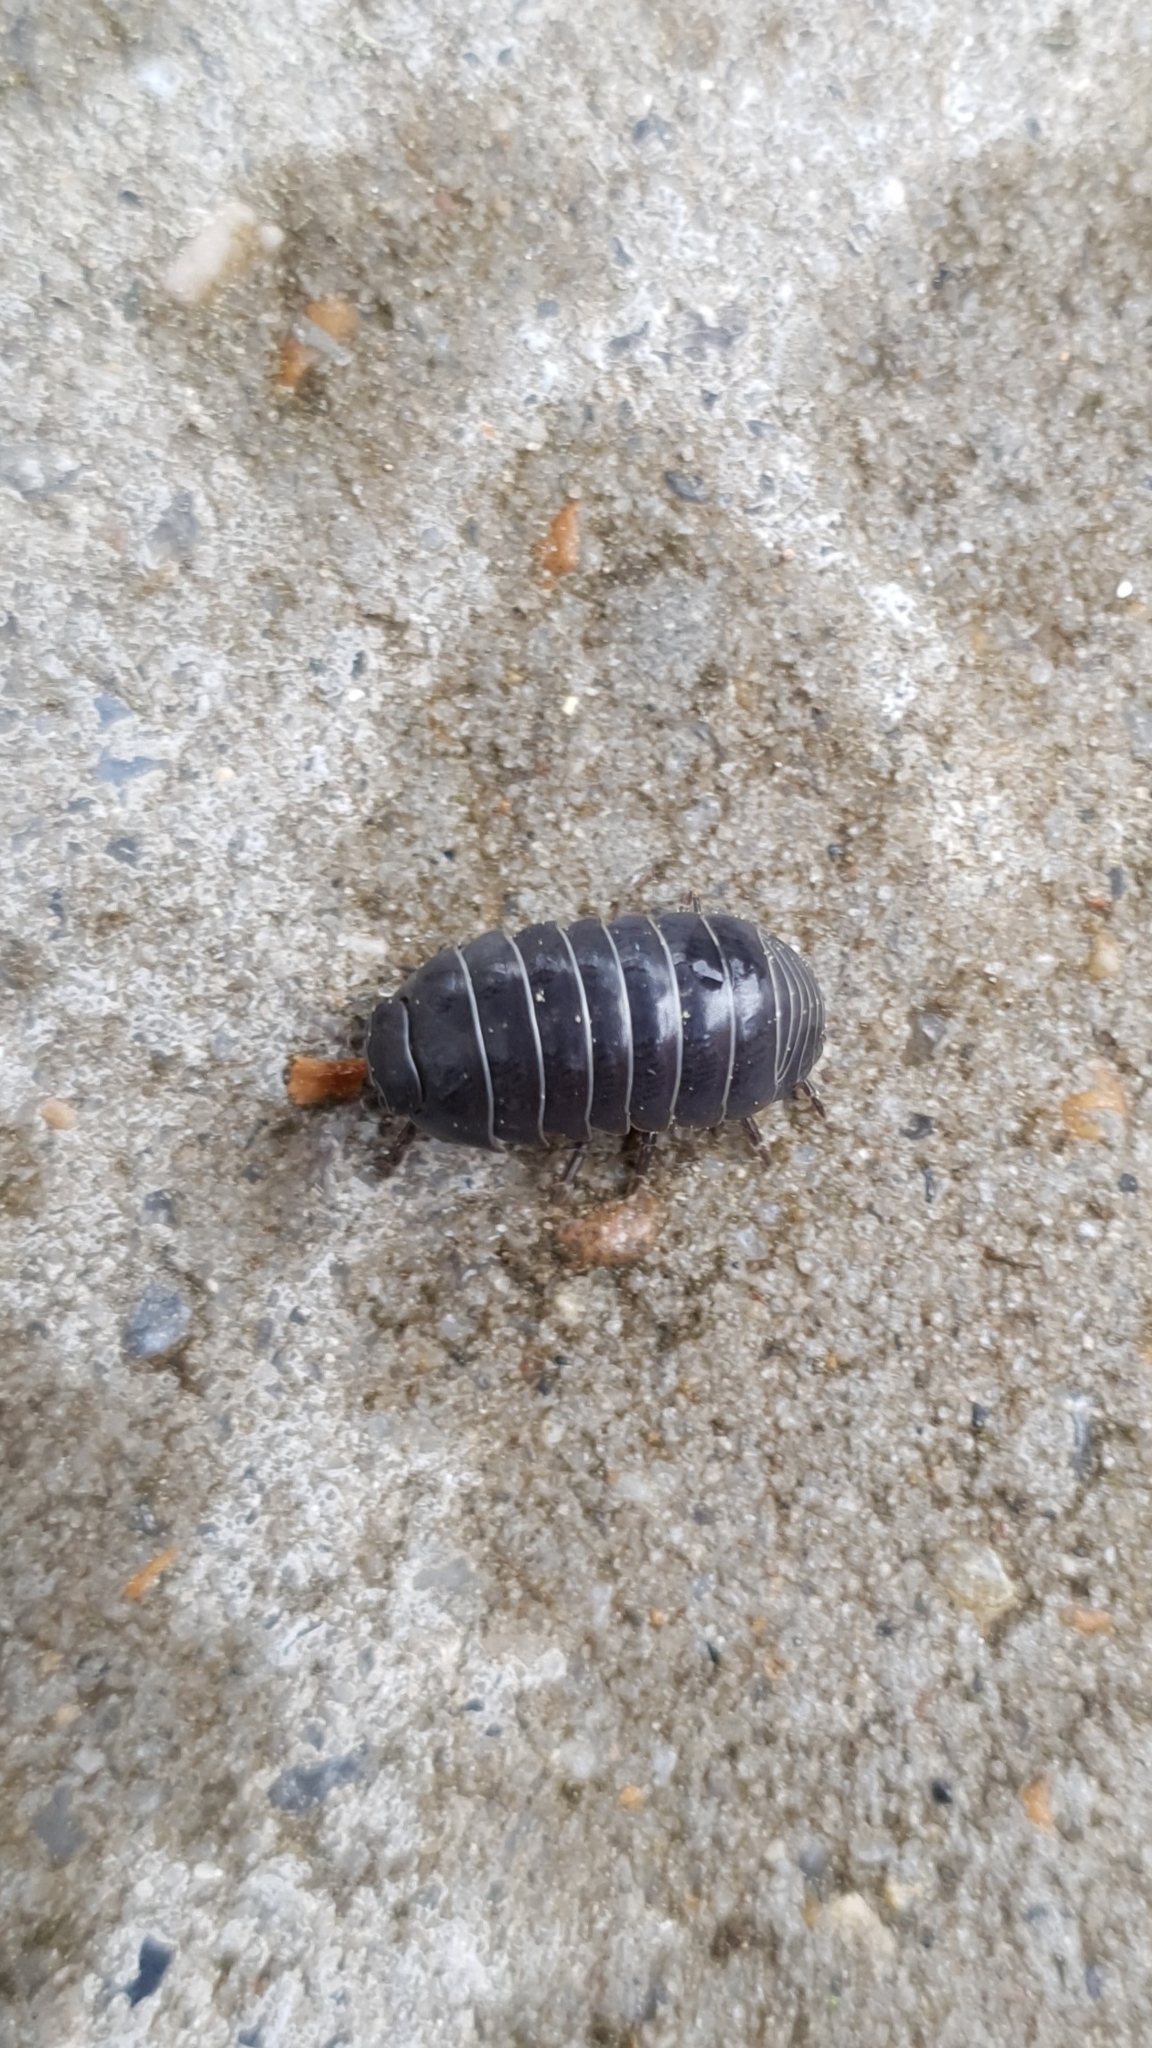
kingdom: Animalia
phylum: Arthropoda
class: Malacostraca
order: Isopoda
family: Armadillidiidae
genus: Armadillidium
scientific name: Armadillidium vulgare
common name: Common pill woodlouse
